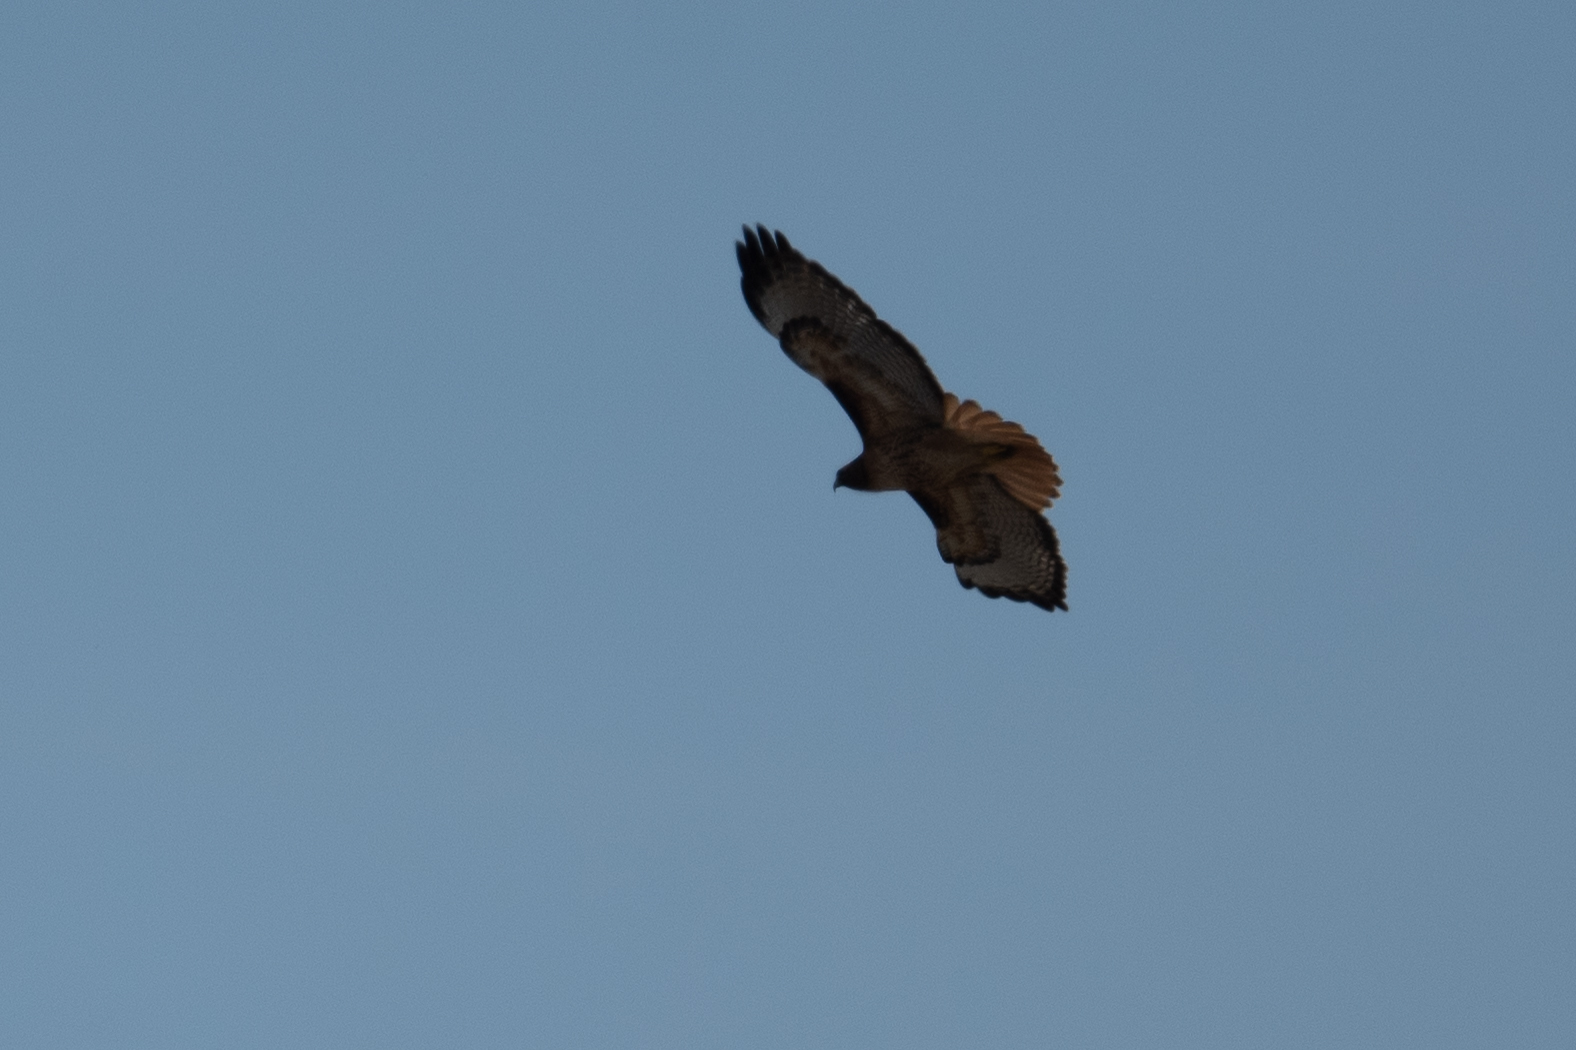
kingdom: Animalia
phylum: Chordata
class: Aves
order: Accipitriformes
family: Accipitridae
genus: Buteo
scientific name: Buteo jamaicensis
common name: Red-tailed hawk
